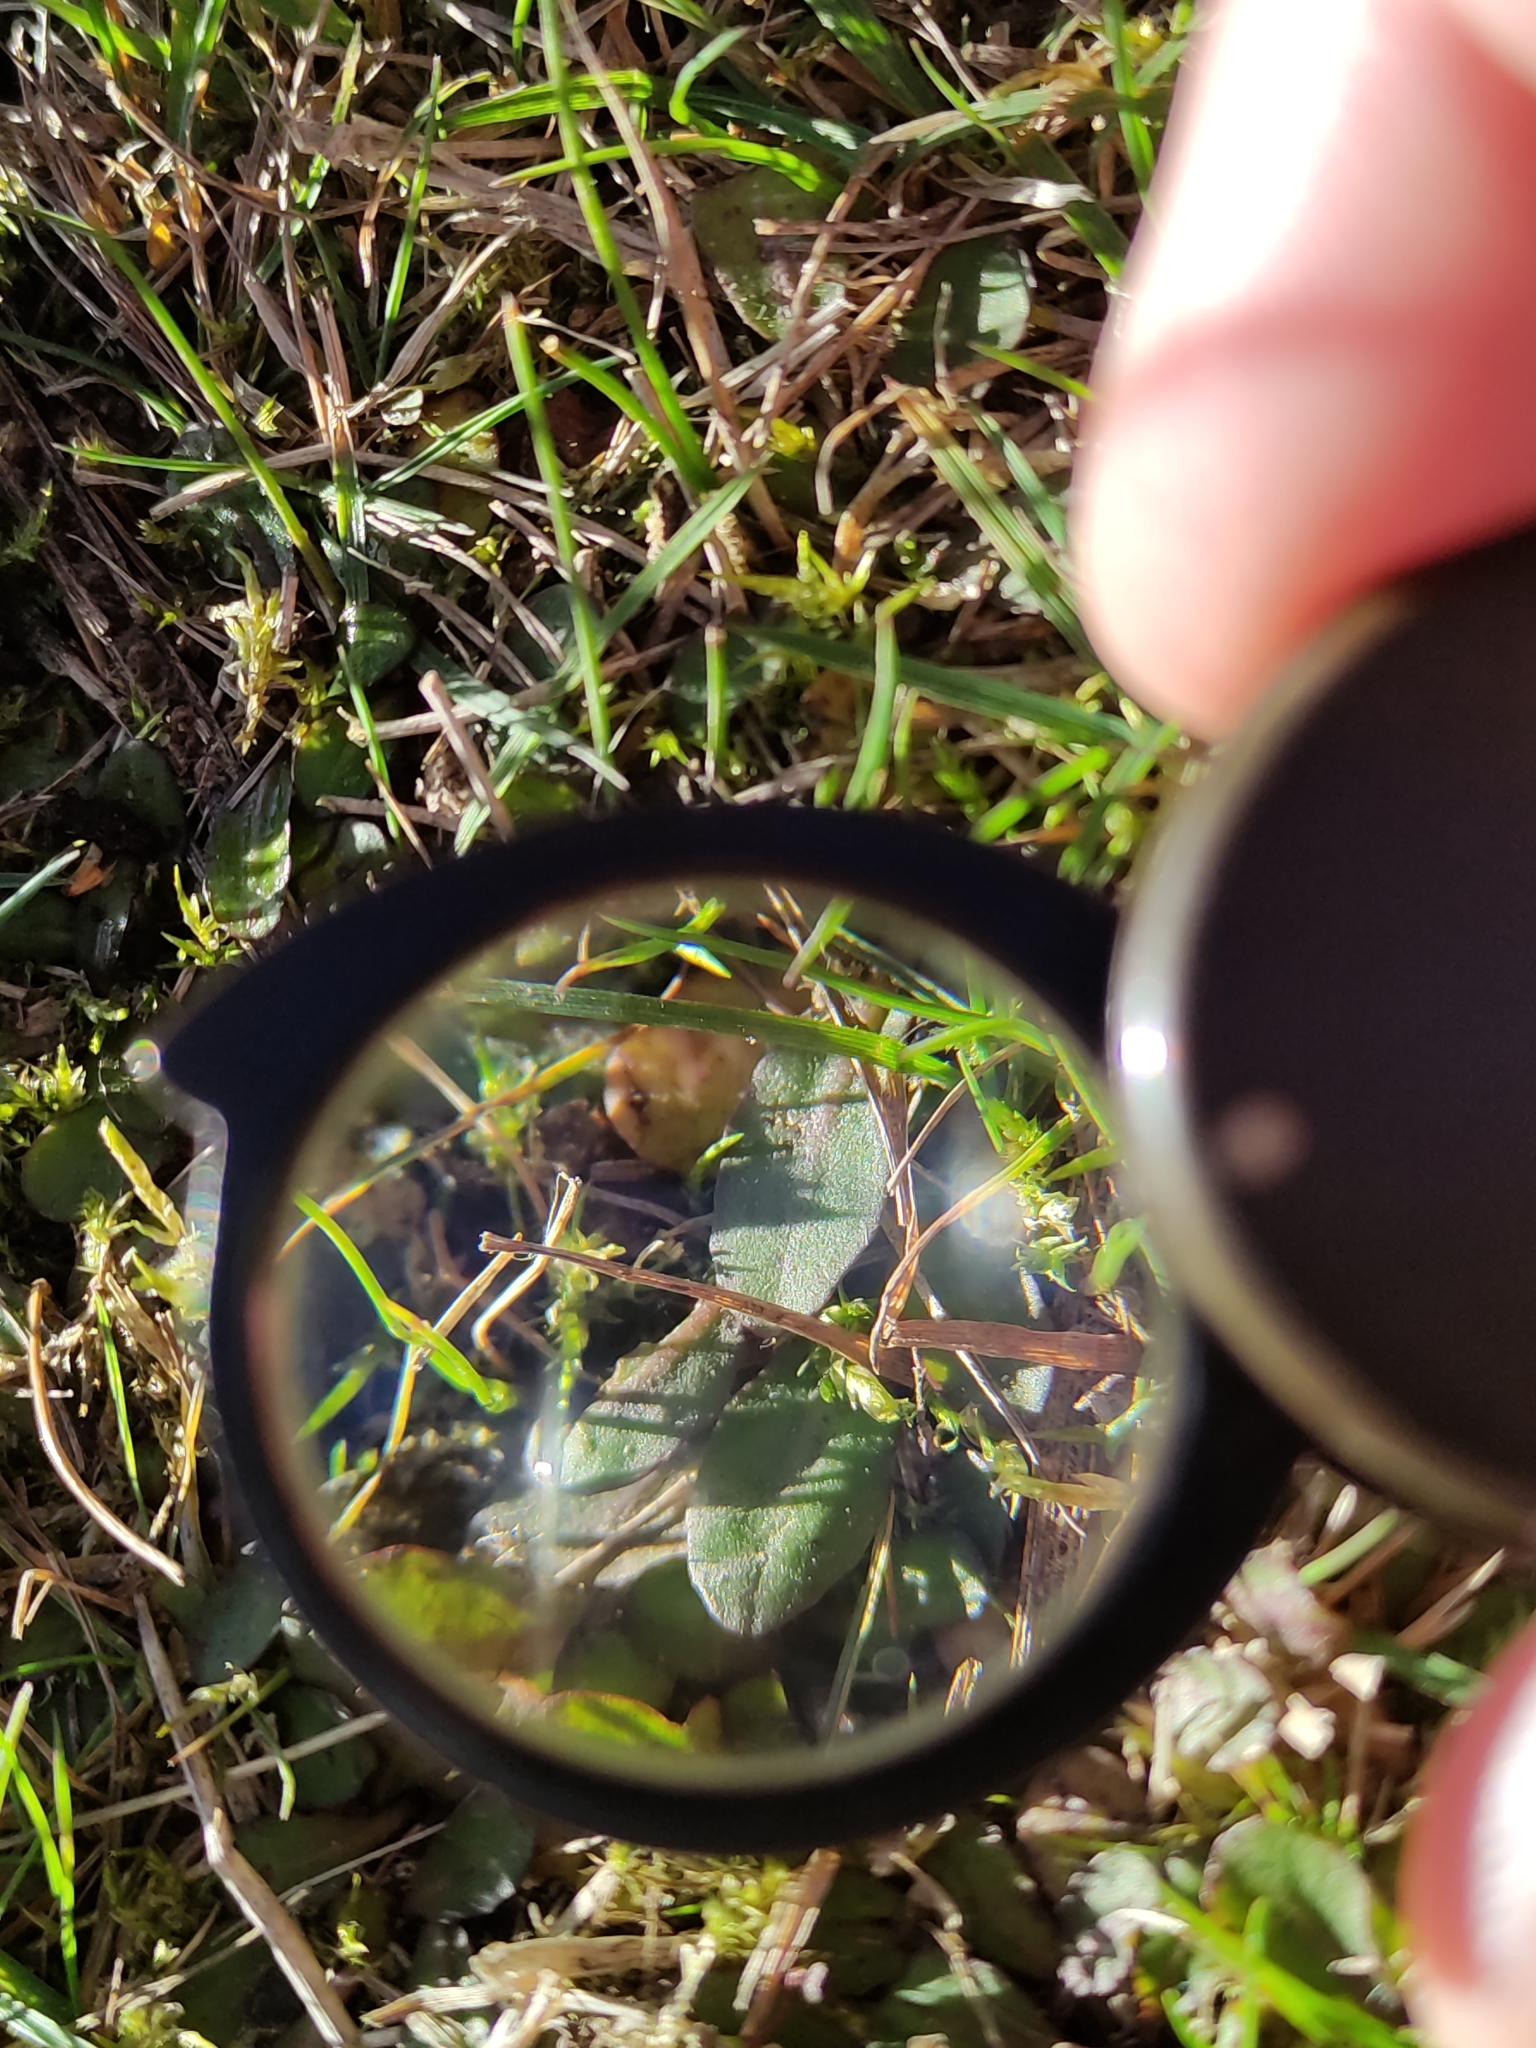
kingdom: Plantae
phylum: Tracheophyta
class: Magnoliopsida
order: Lamiales
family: Mazaceae
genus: Mazus
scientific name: Mazus novaezeelandiae
